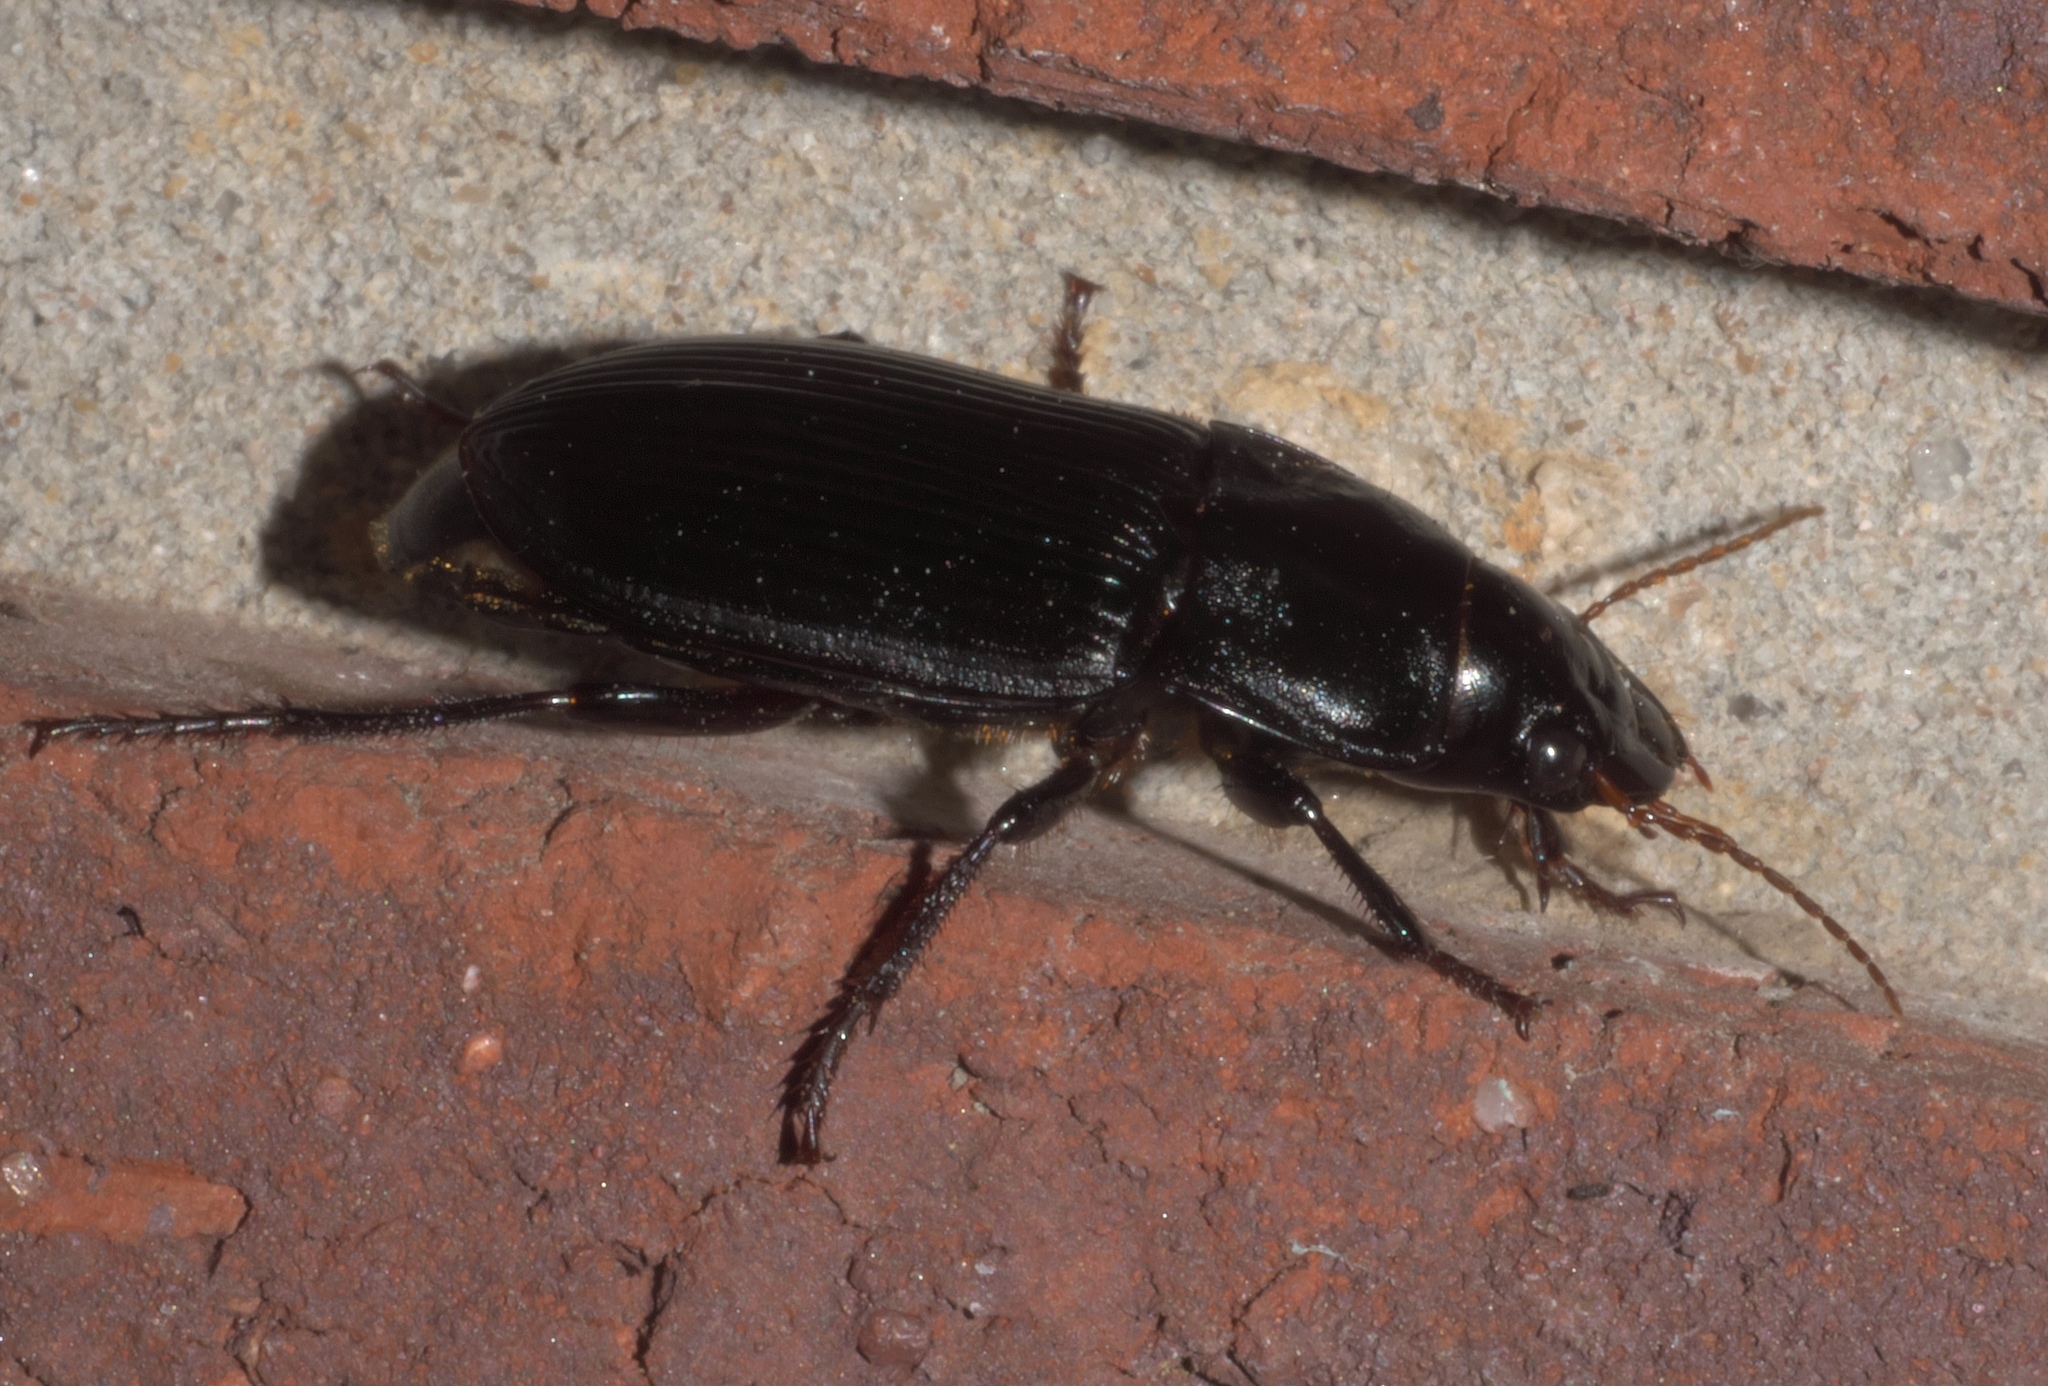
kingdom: Animalia
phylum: Arthropoda
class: Insecta
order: Coleoptera
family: Carabidae
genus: Harpalus
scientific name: Harpalus caliginosus
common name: Murky ground beetle
